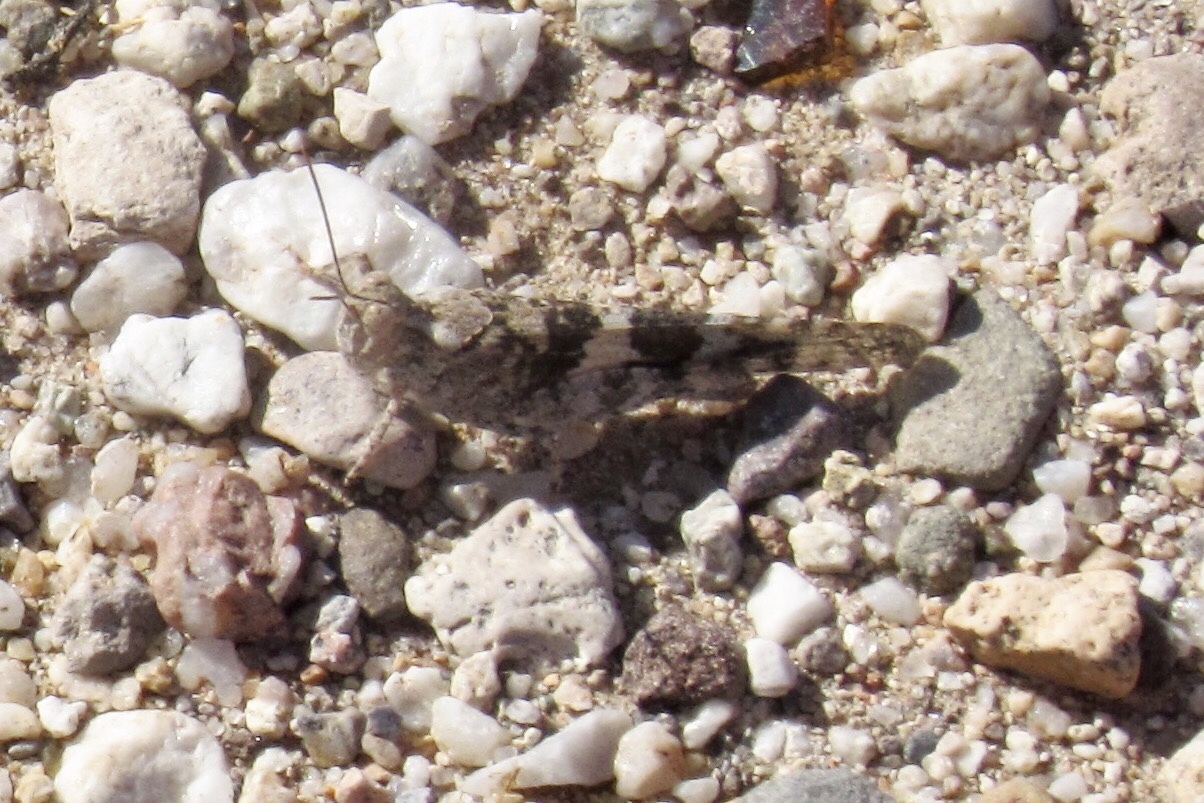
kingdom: Animalia
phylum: Arthropoda
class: Insecta
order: Orthoptera
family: Acrididae
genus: Trimerotropis
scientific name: Trimerotropis pallidipennis
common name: Pallid-winged grasshopper
